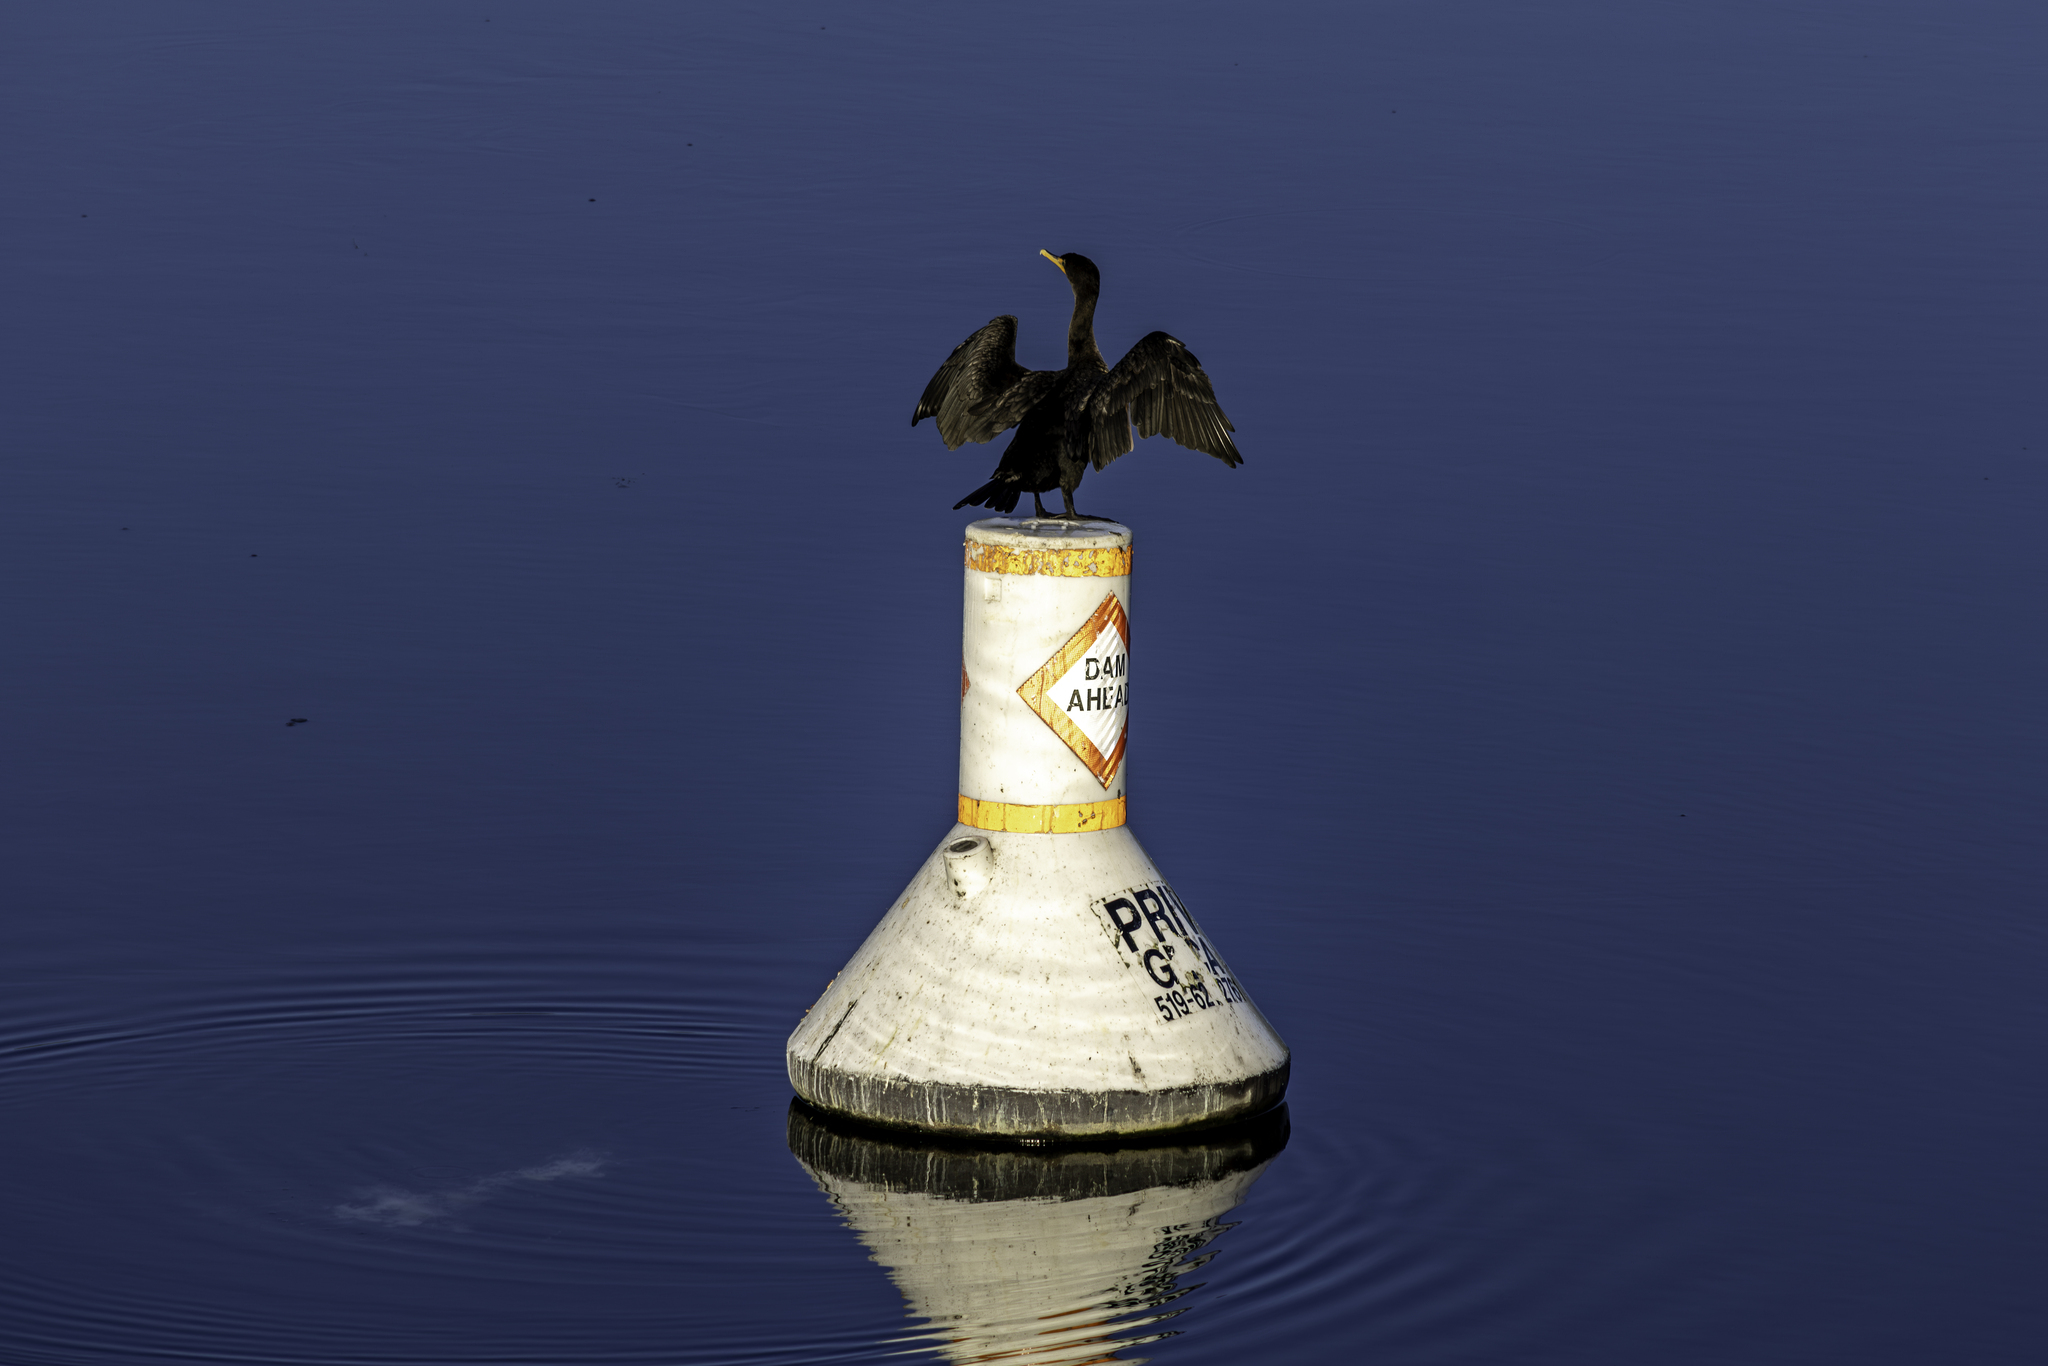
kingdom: Animalia
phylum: Chordata
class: Aves
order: Suliformes
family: Phalacrocoracidae
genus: Phalacrocorax
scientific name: Phalacrocorax auritus
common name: Double-crested cormorant
